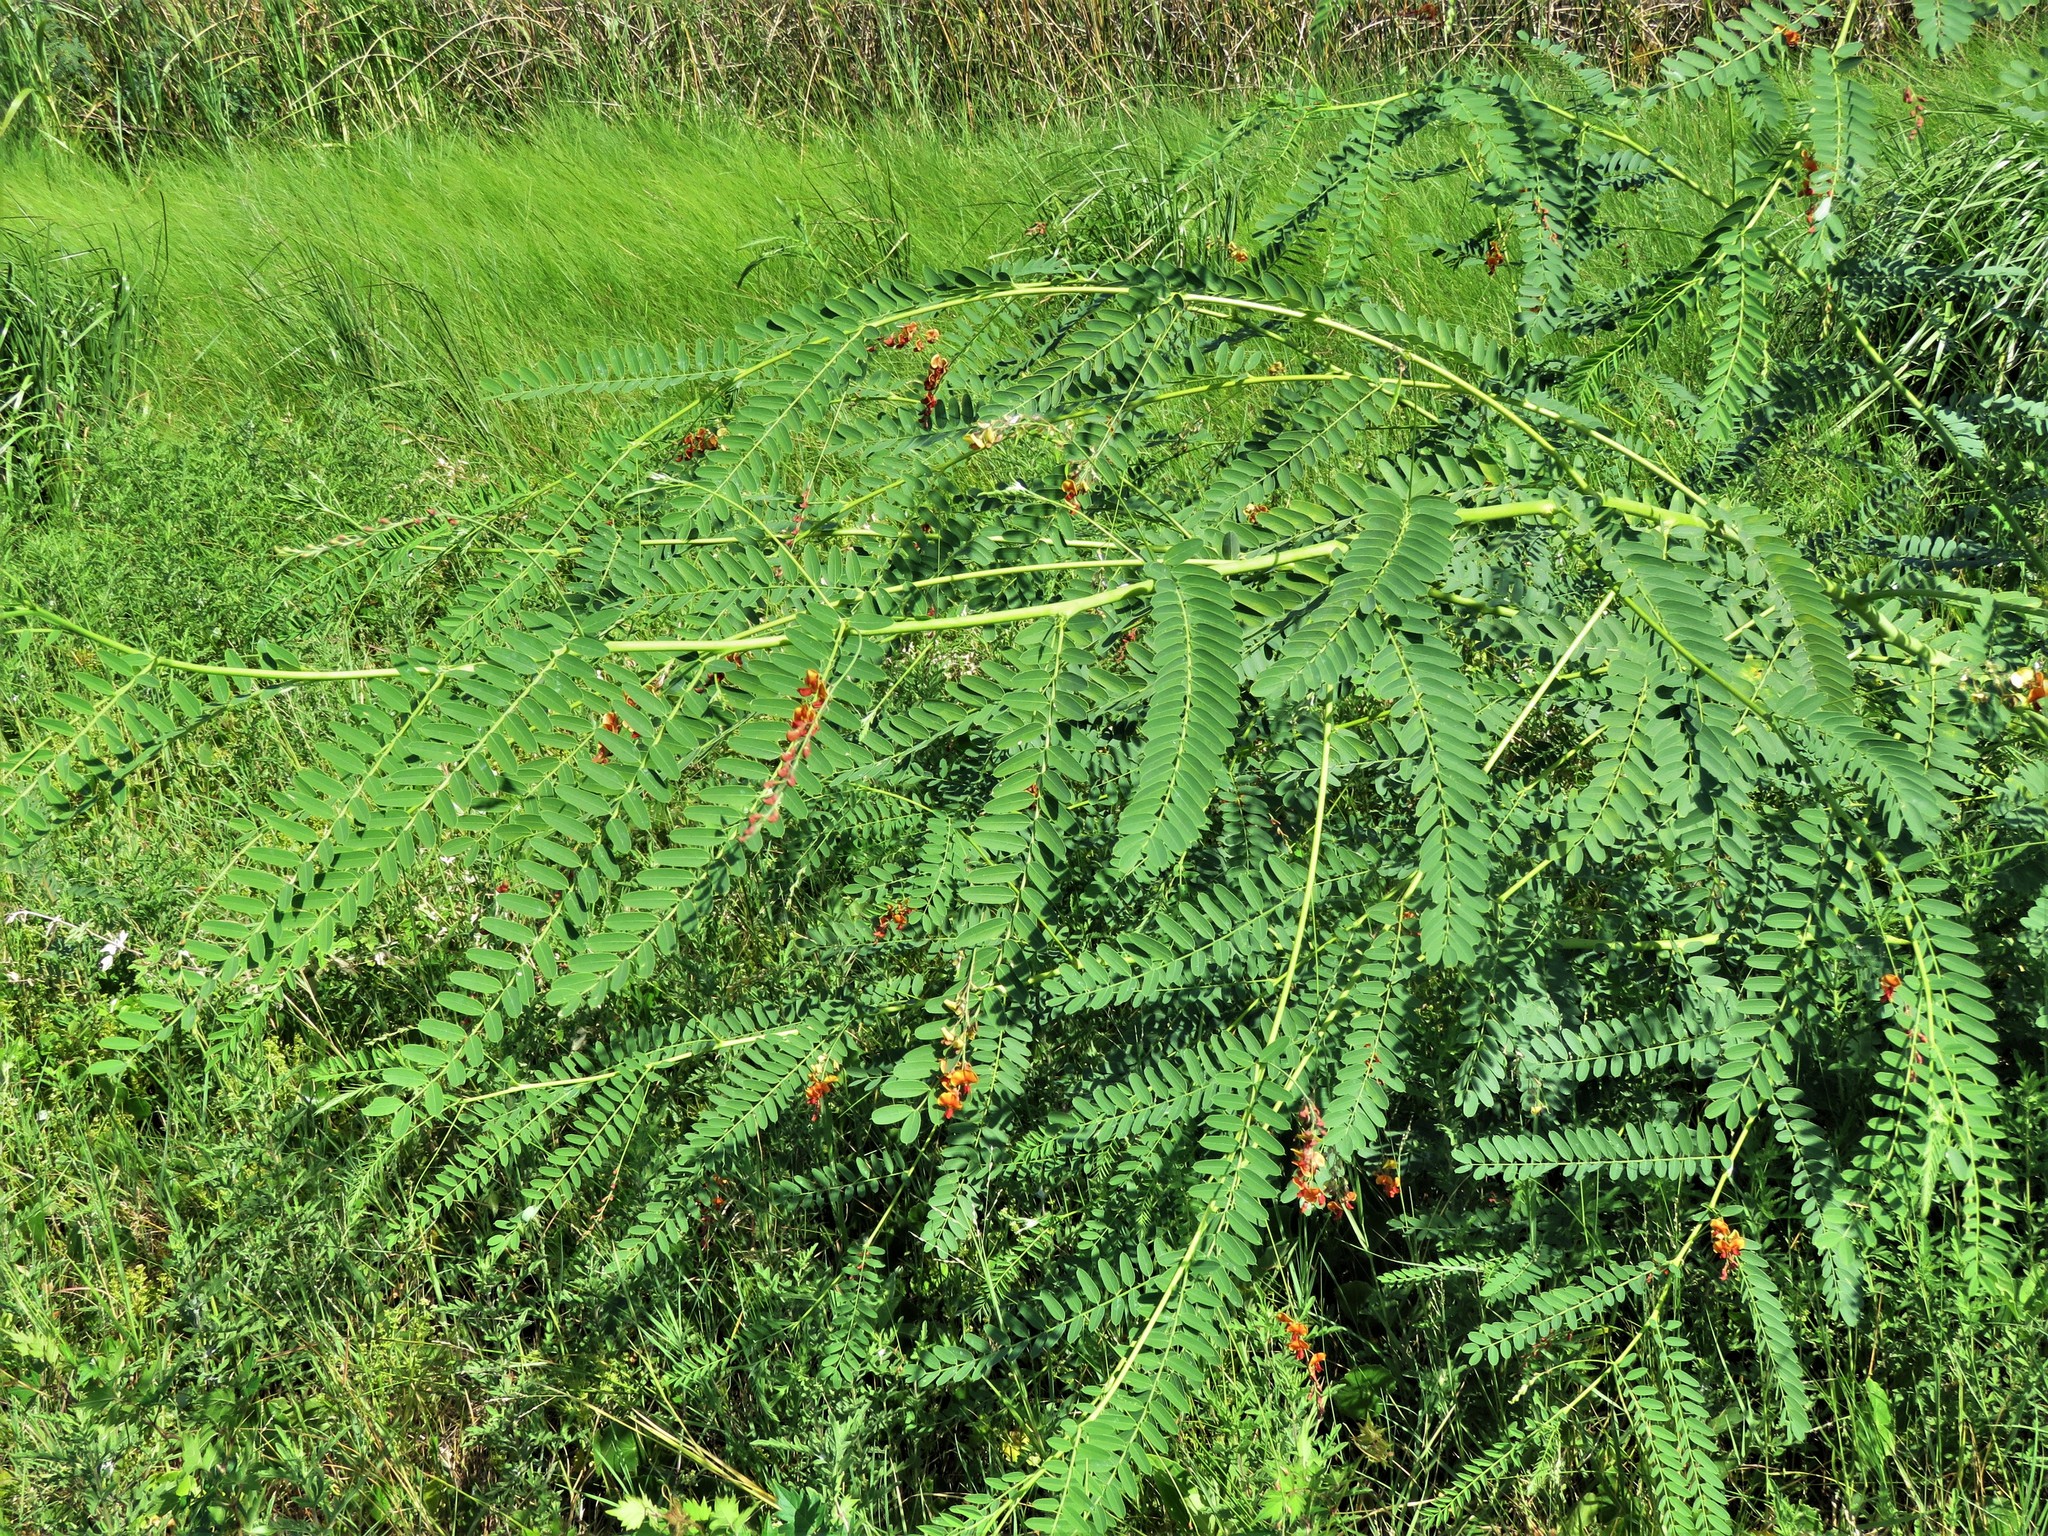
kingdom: Plantae
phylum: Tracheophyta
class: Magnoliopsida
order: Fabales
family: Fabaceae
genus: Sesbania
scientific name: Sesbania drummondii
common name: Poison-bean
